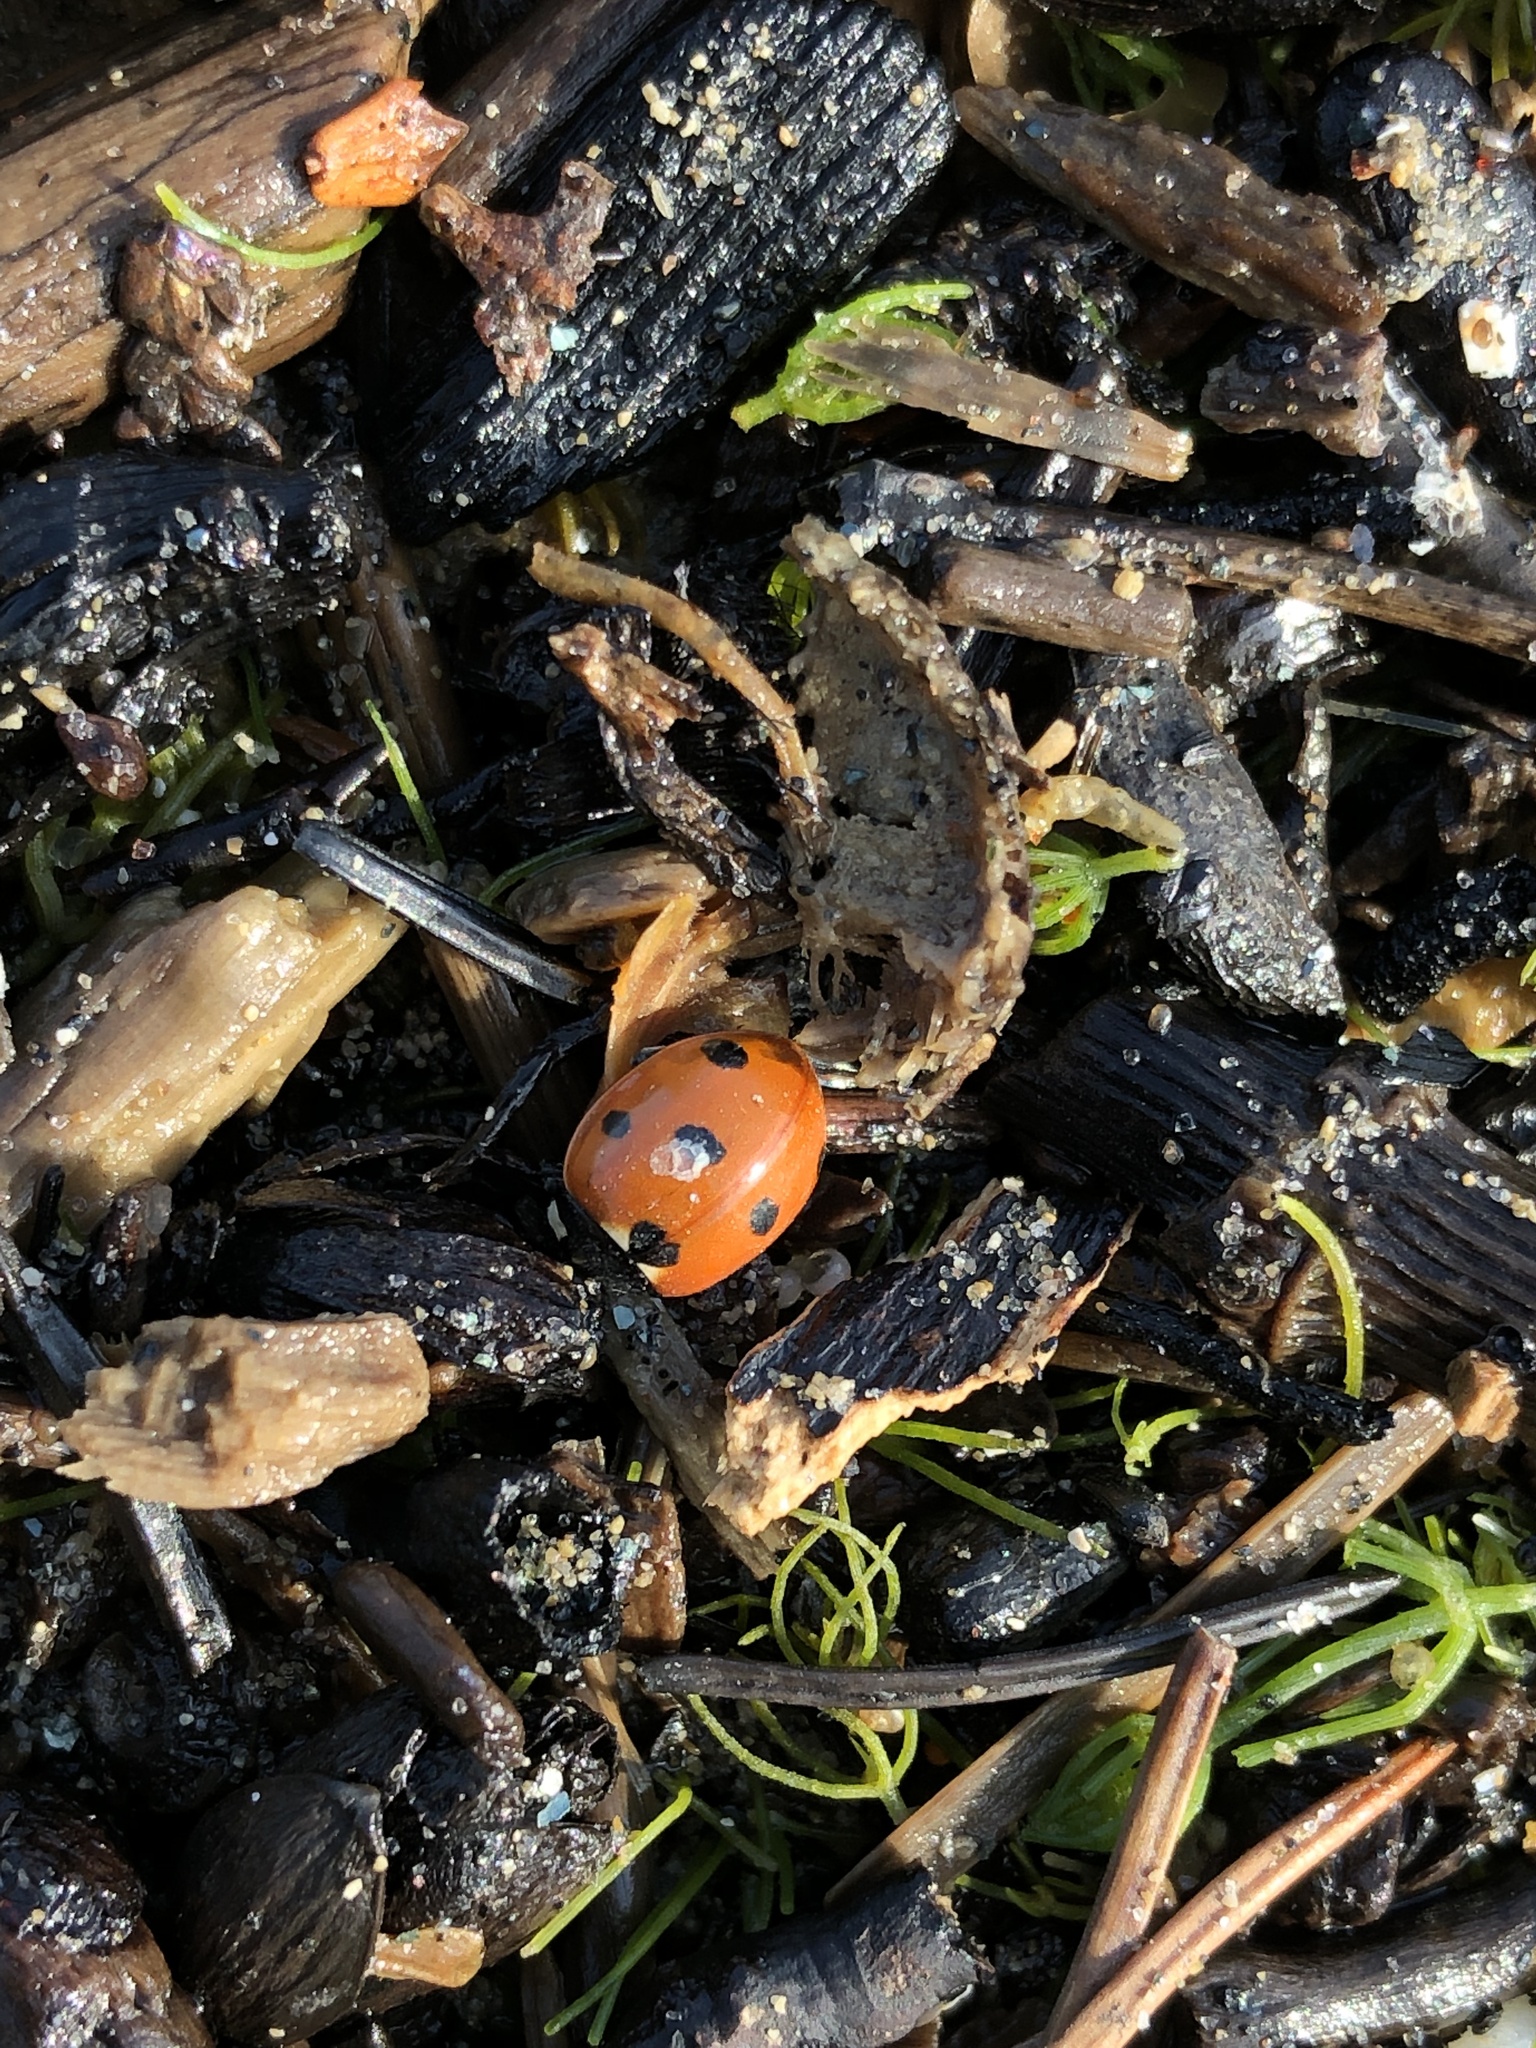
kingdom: Animalia
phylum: Arthropoda
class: Insecta
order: Coleoptera
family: Coccinellidae
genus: Coccinella
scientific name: Coccinella septempunctata
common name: Sevenspotted lady beetle
